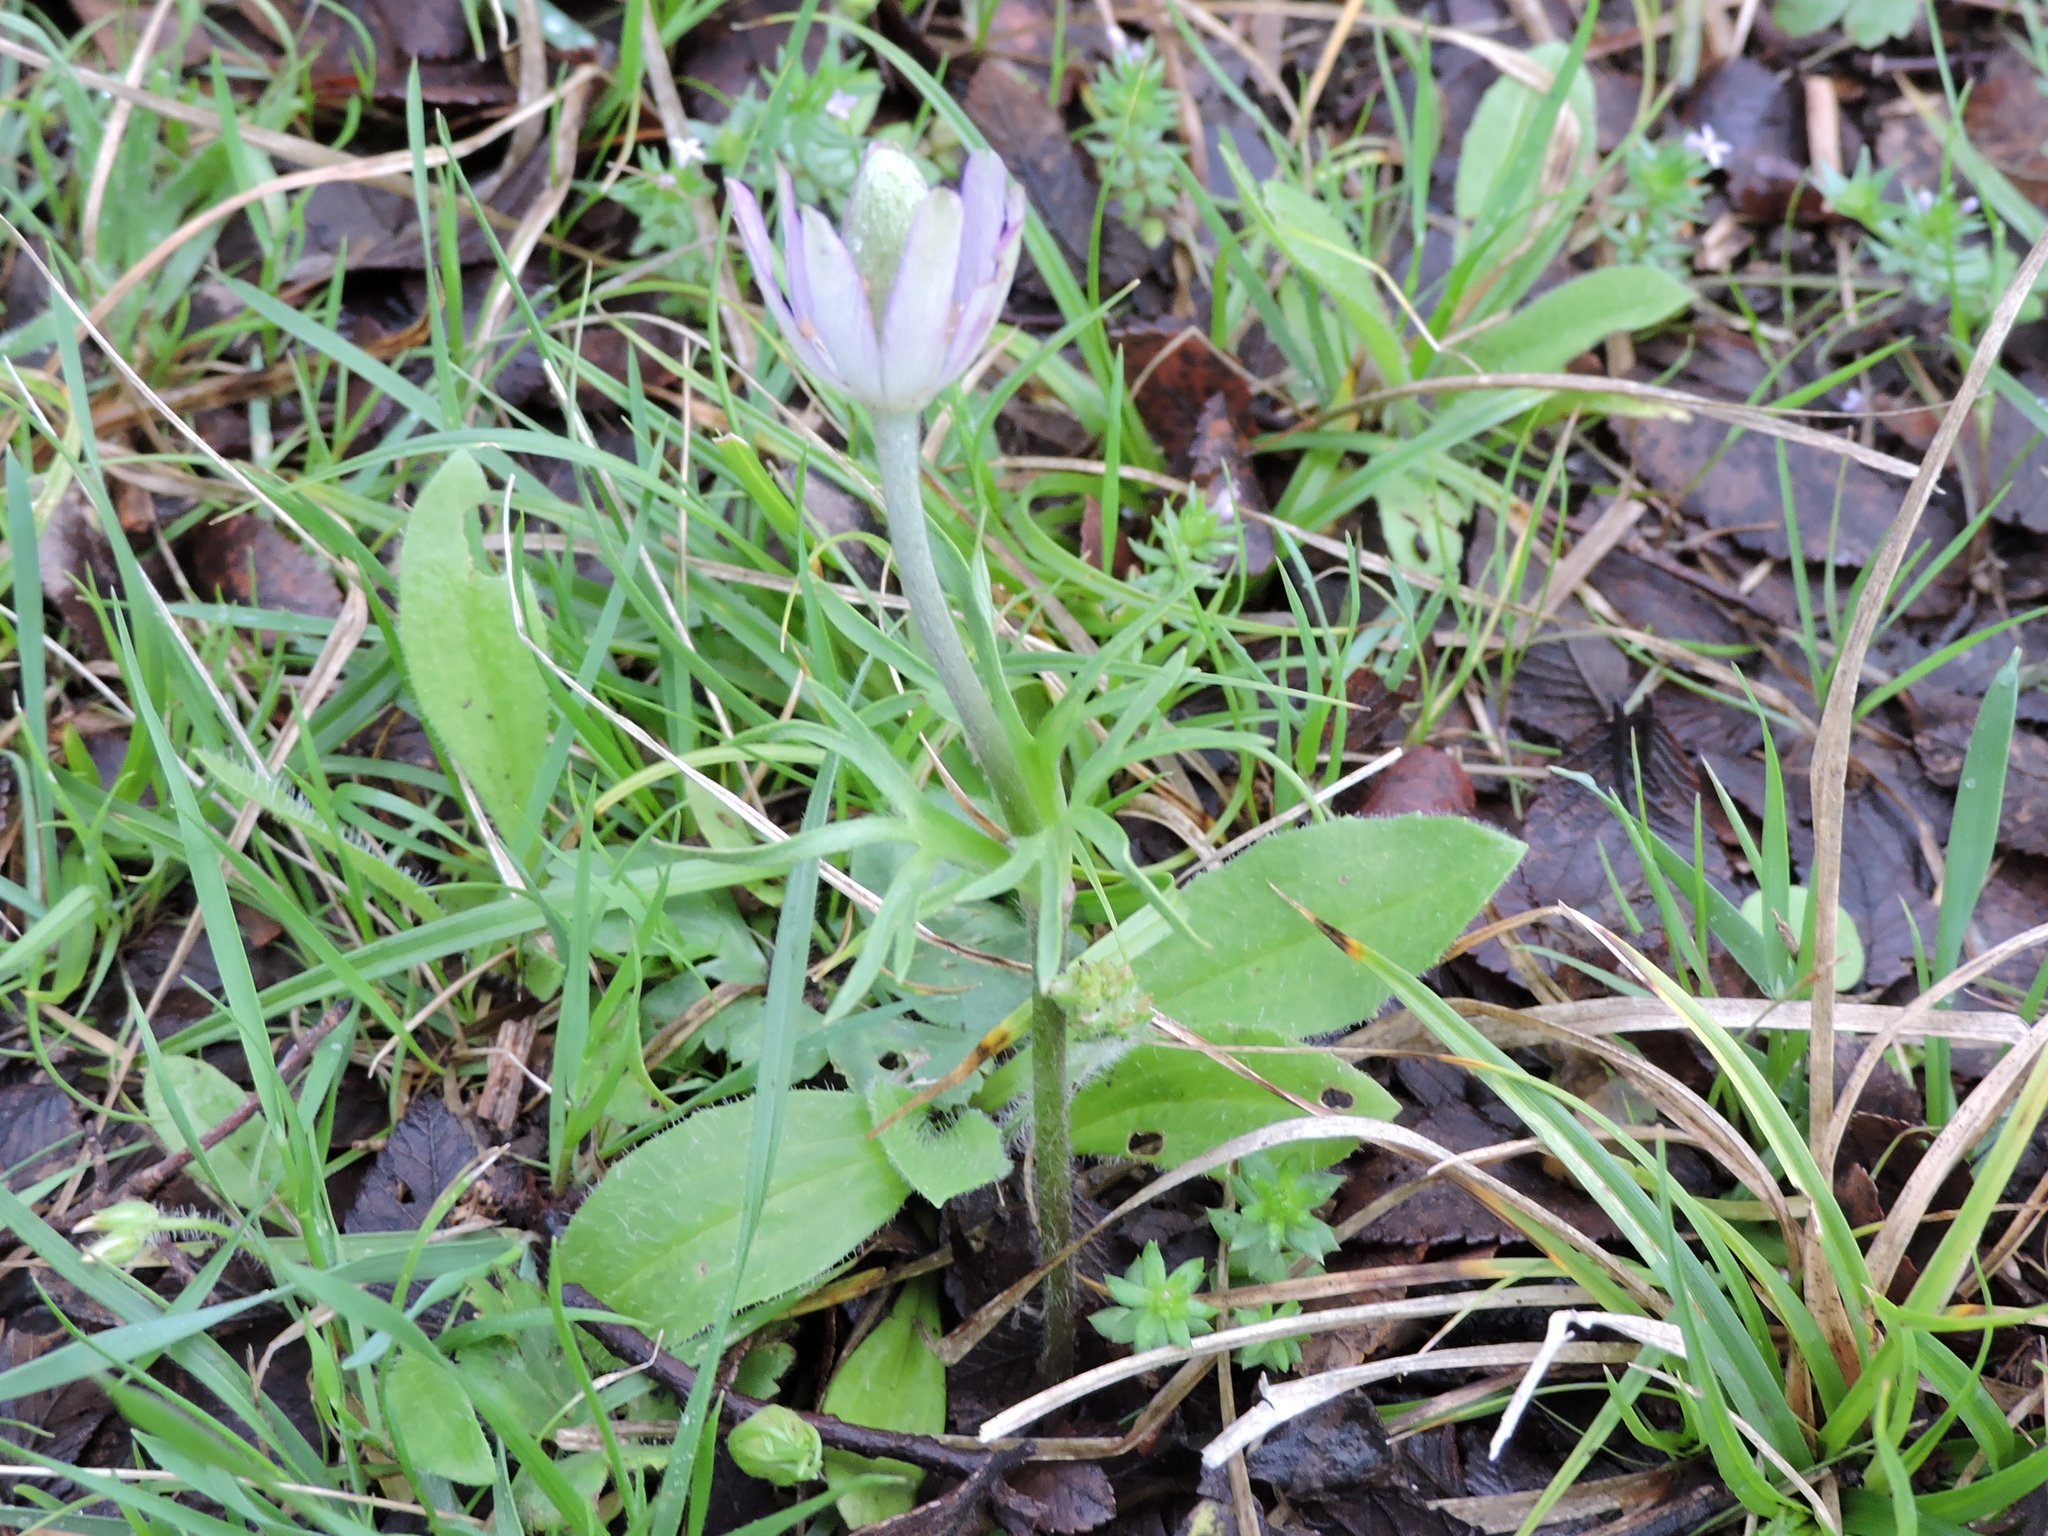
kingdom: Plantae
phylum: Tracheophyta
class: Magnoliopsida
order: Ranunculales
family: Ranunculaceae
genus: Anemone
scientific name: Anemone berlandieri
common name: Ten-petal anemone
